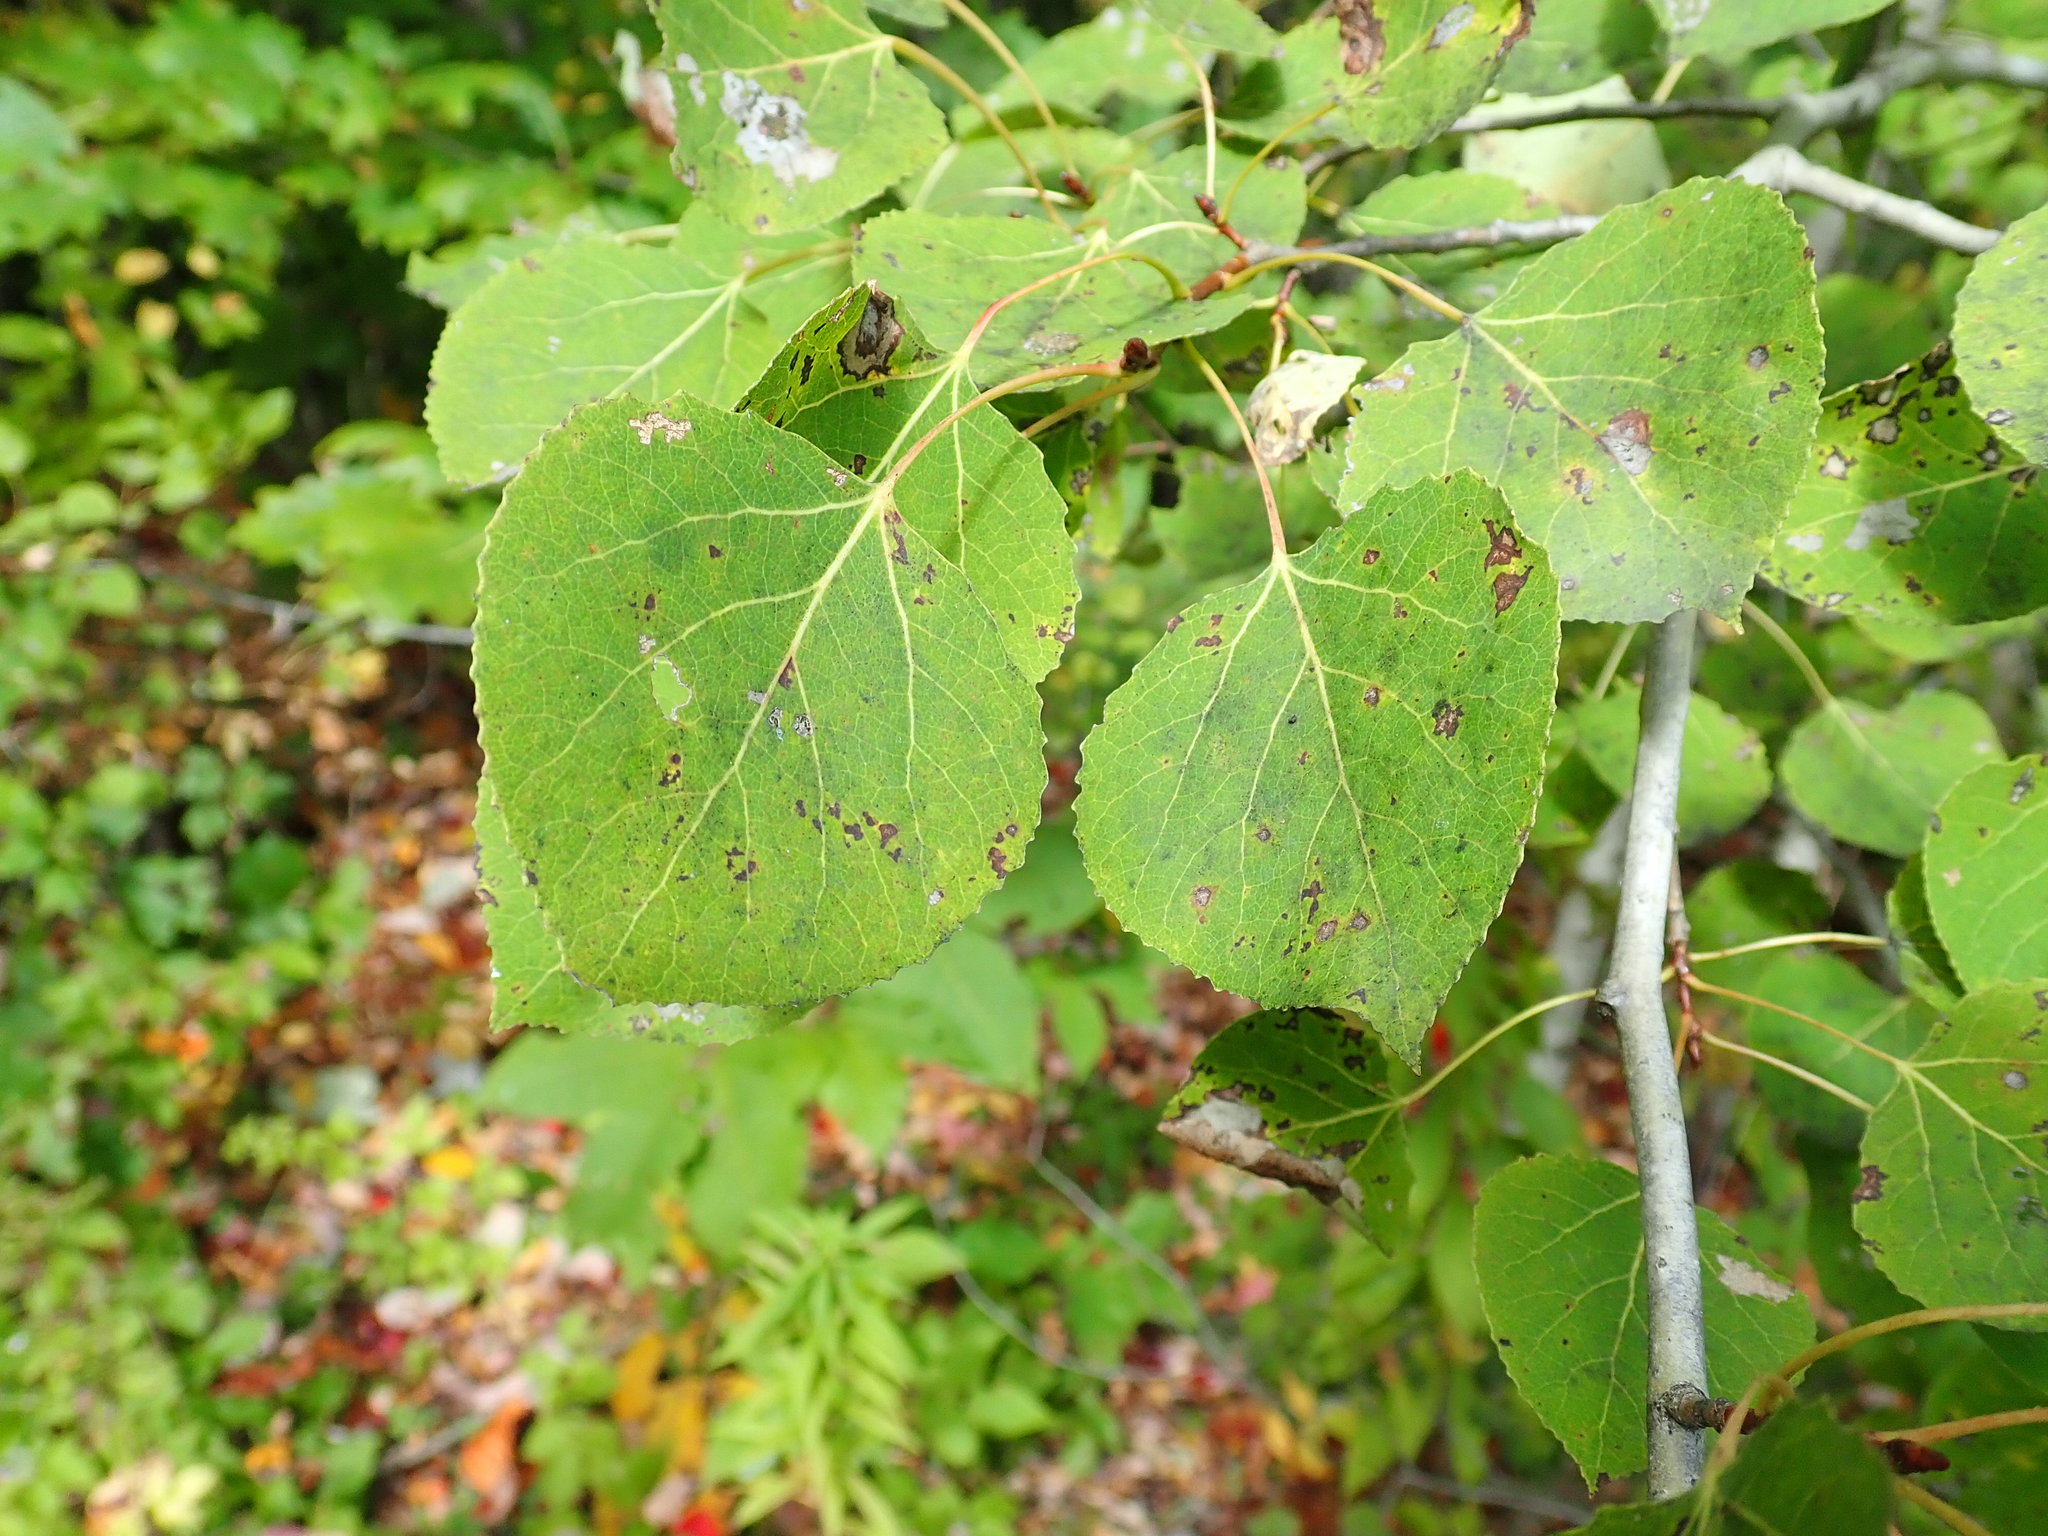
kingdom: Plantae
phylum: Tracheophyta
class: Magnoliopsida
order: Malpighiales
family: Salicaceae
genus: Populus
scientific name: Populus tremuloides
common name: Quaking aspen
